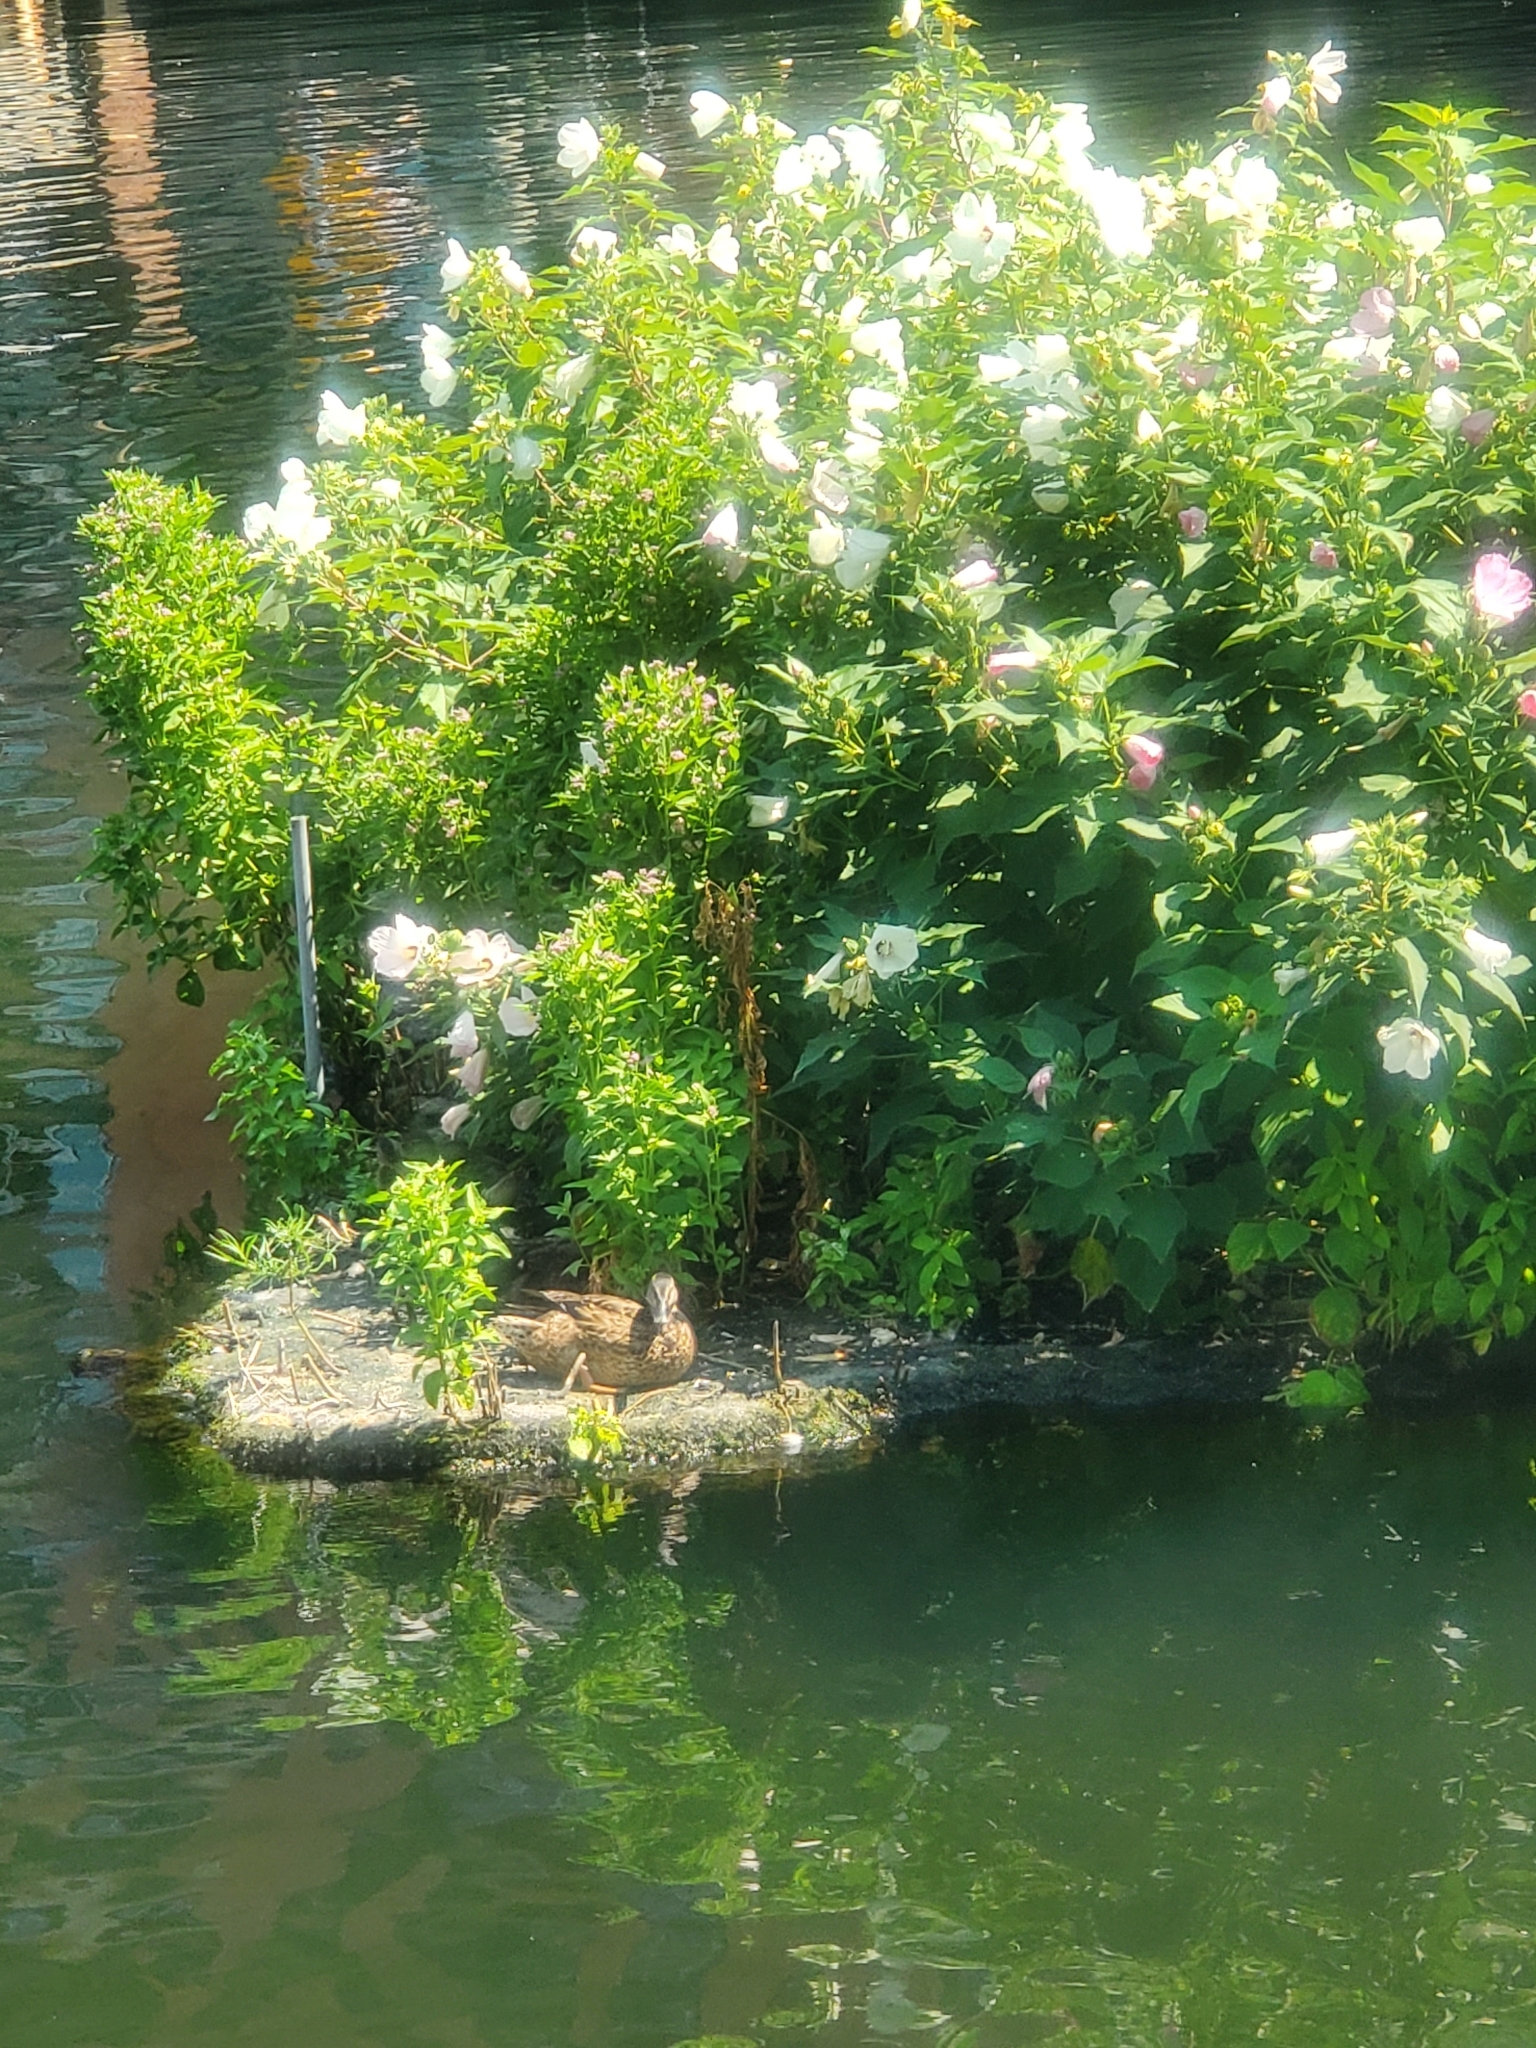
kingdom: Animalia
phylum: Chordata
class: Aves
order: Anseriformes
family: Anatidae
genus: Anas
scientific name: Anas platyrhynchos
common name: Mallard
